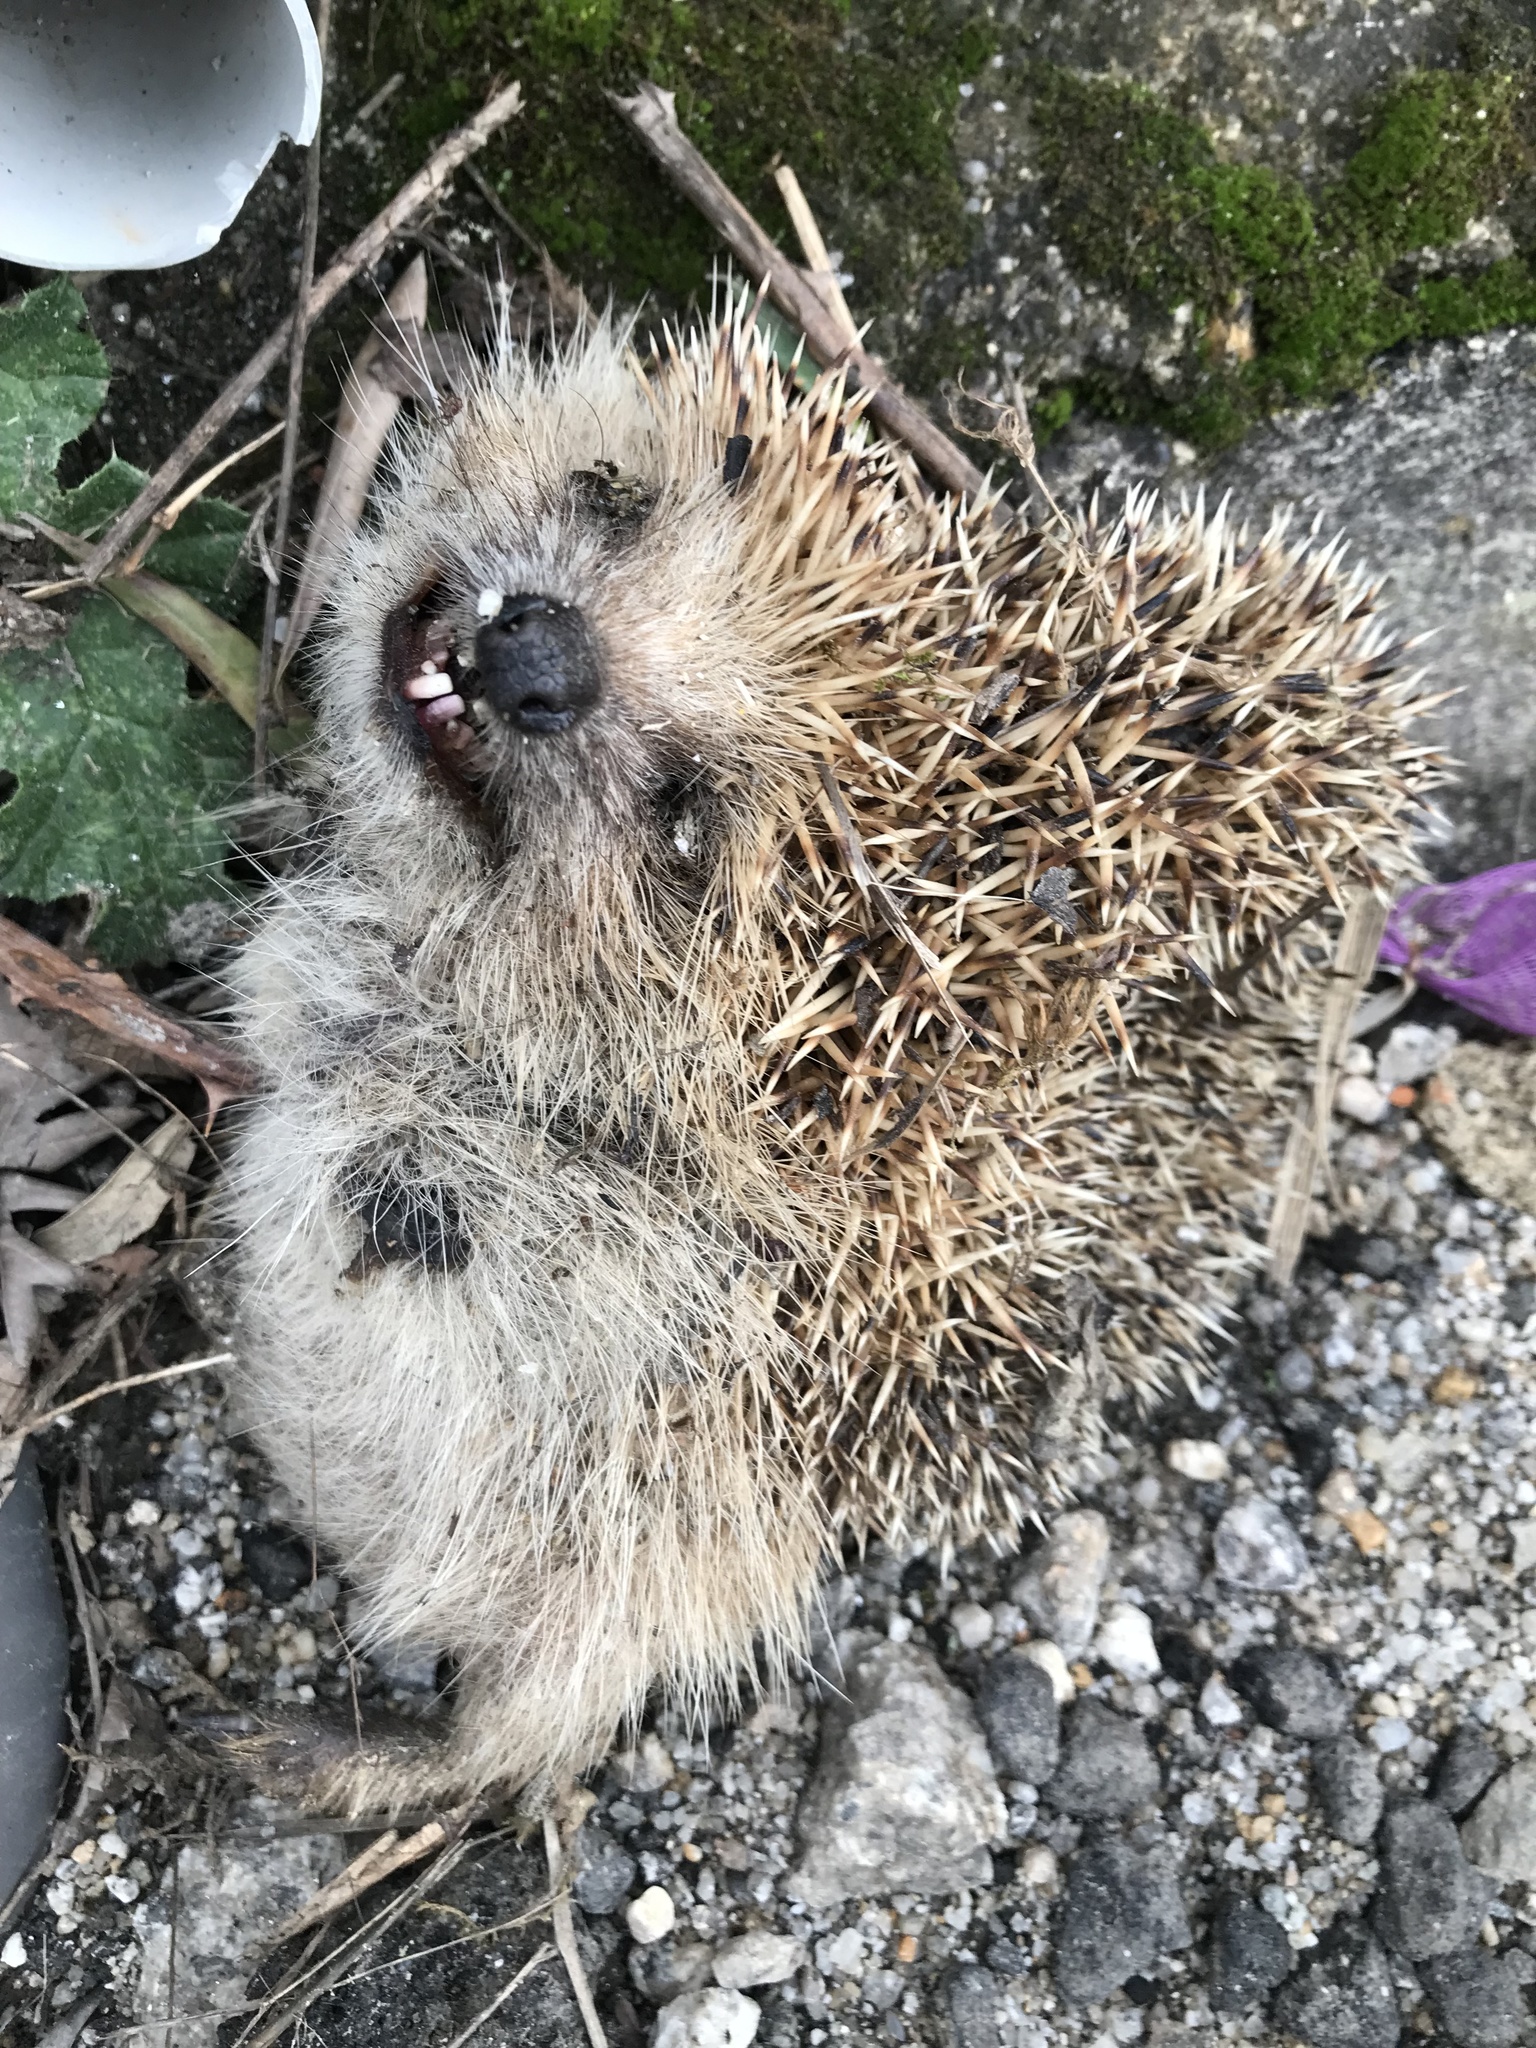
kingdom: Animalia
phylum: Chordata
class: Mammalia
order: Erinaceomorpha
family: Erinaceidae
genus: Erinaceus
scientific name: Erinaceus europaeus
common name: West european hedgehog
